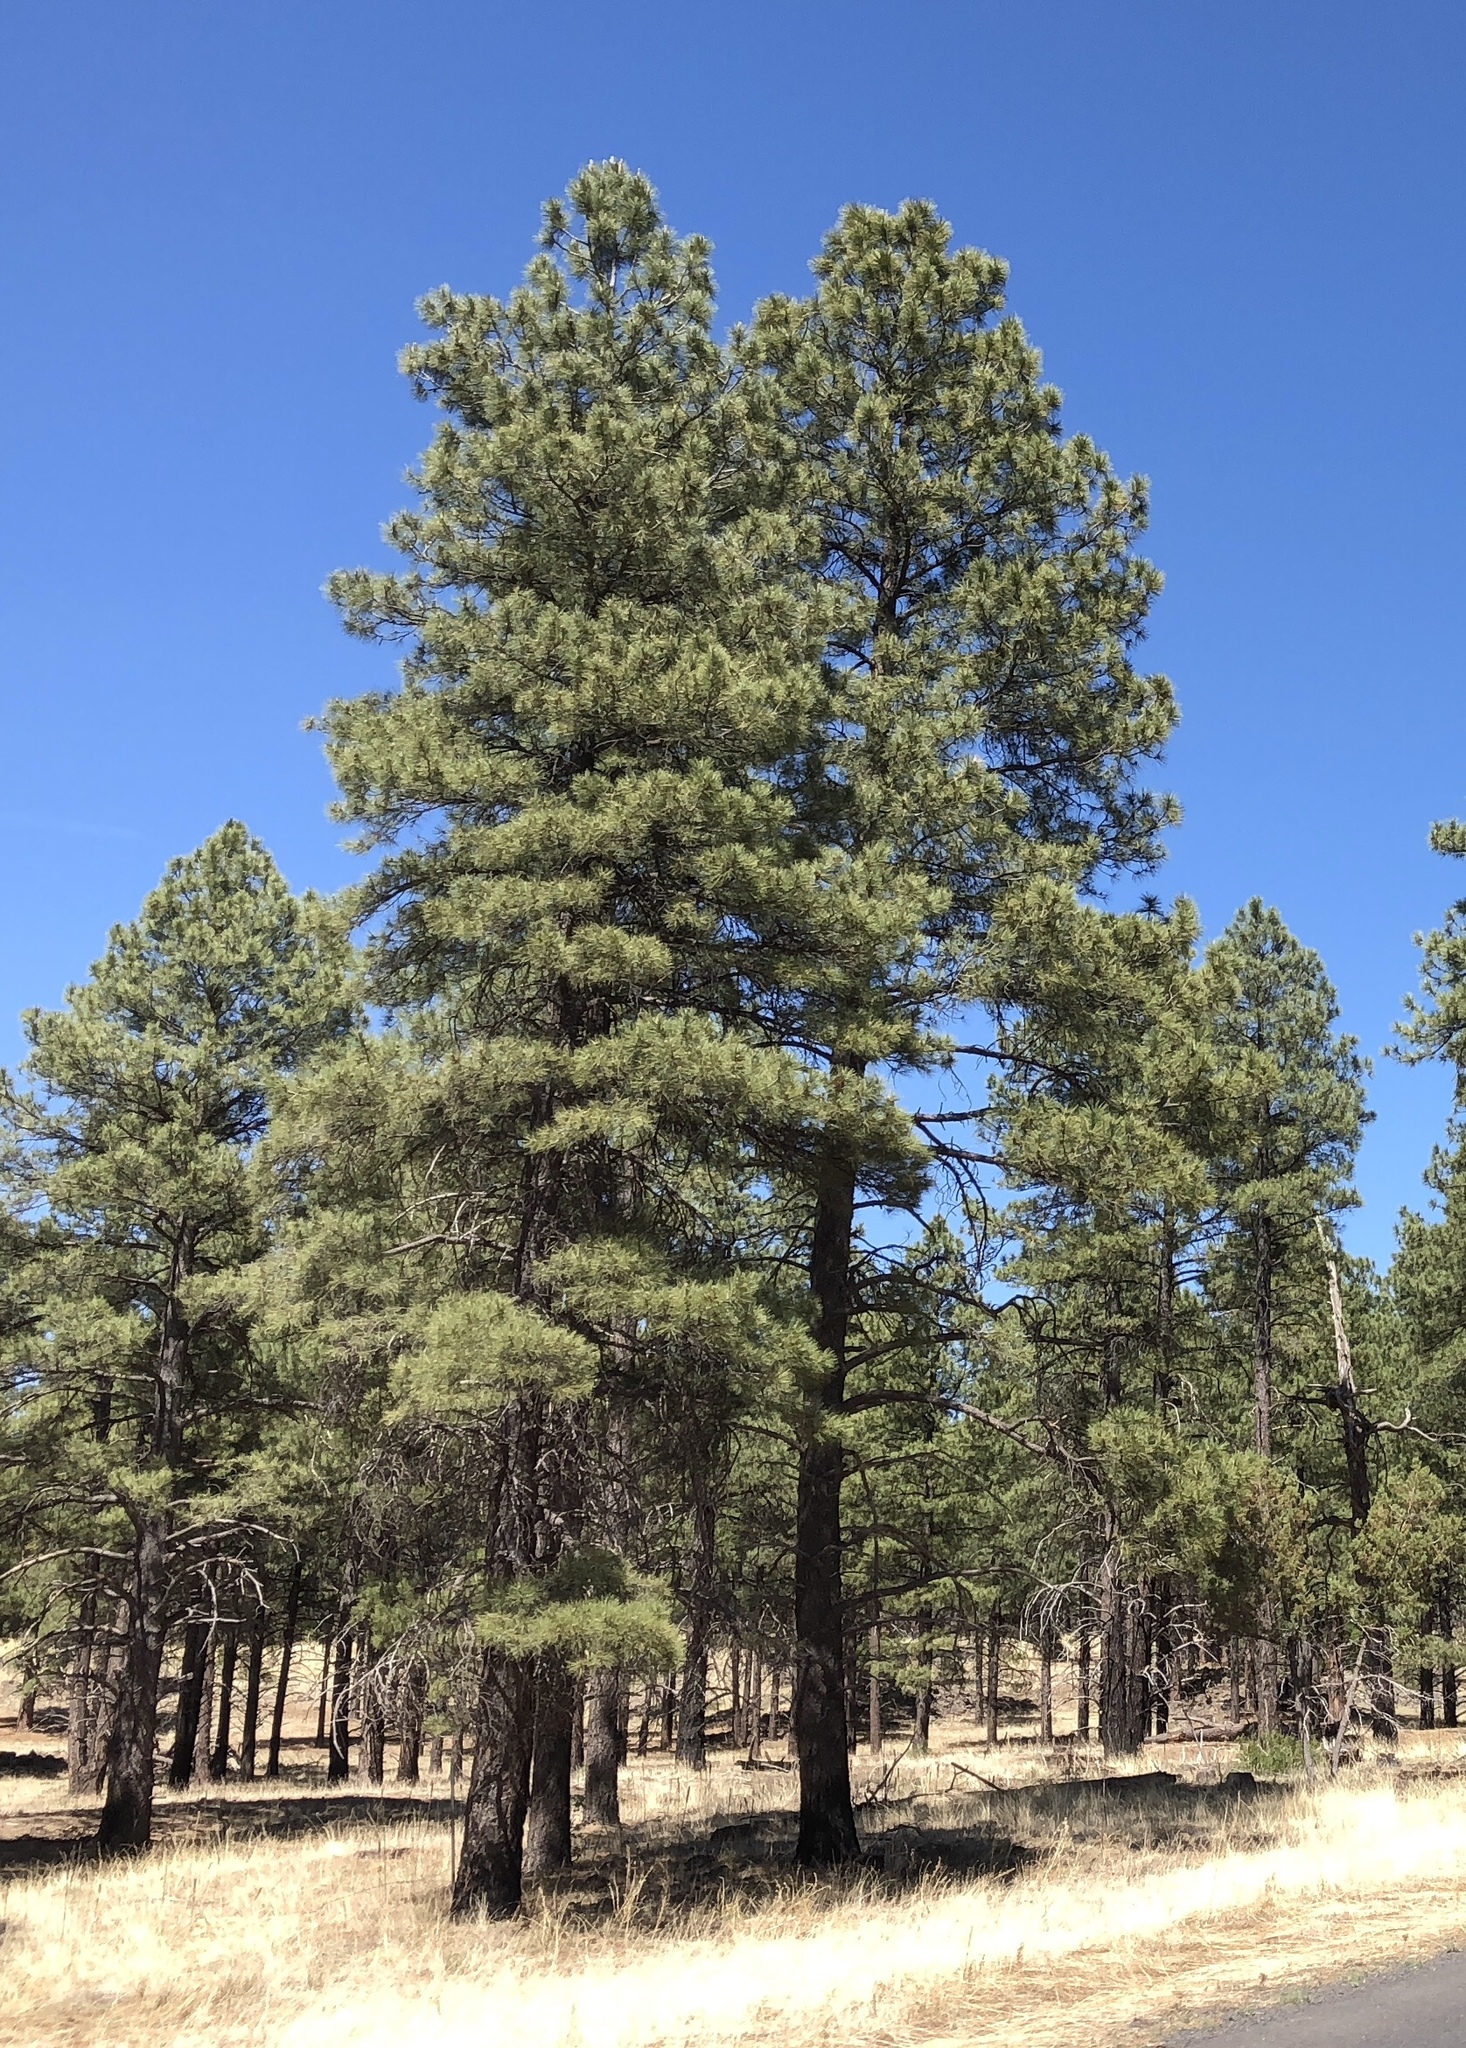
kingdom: Plantae
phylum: Tracheophyta
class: Pinopsida
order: Pinales
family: Pinaceae
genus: Pinus
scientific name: Pinus ponderosa
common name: Western yellow-pine
